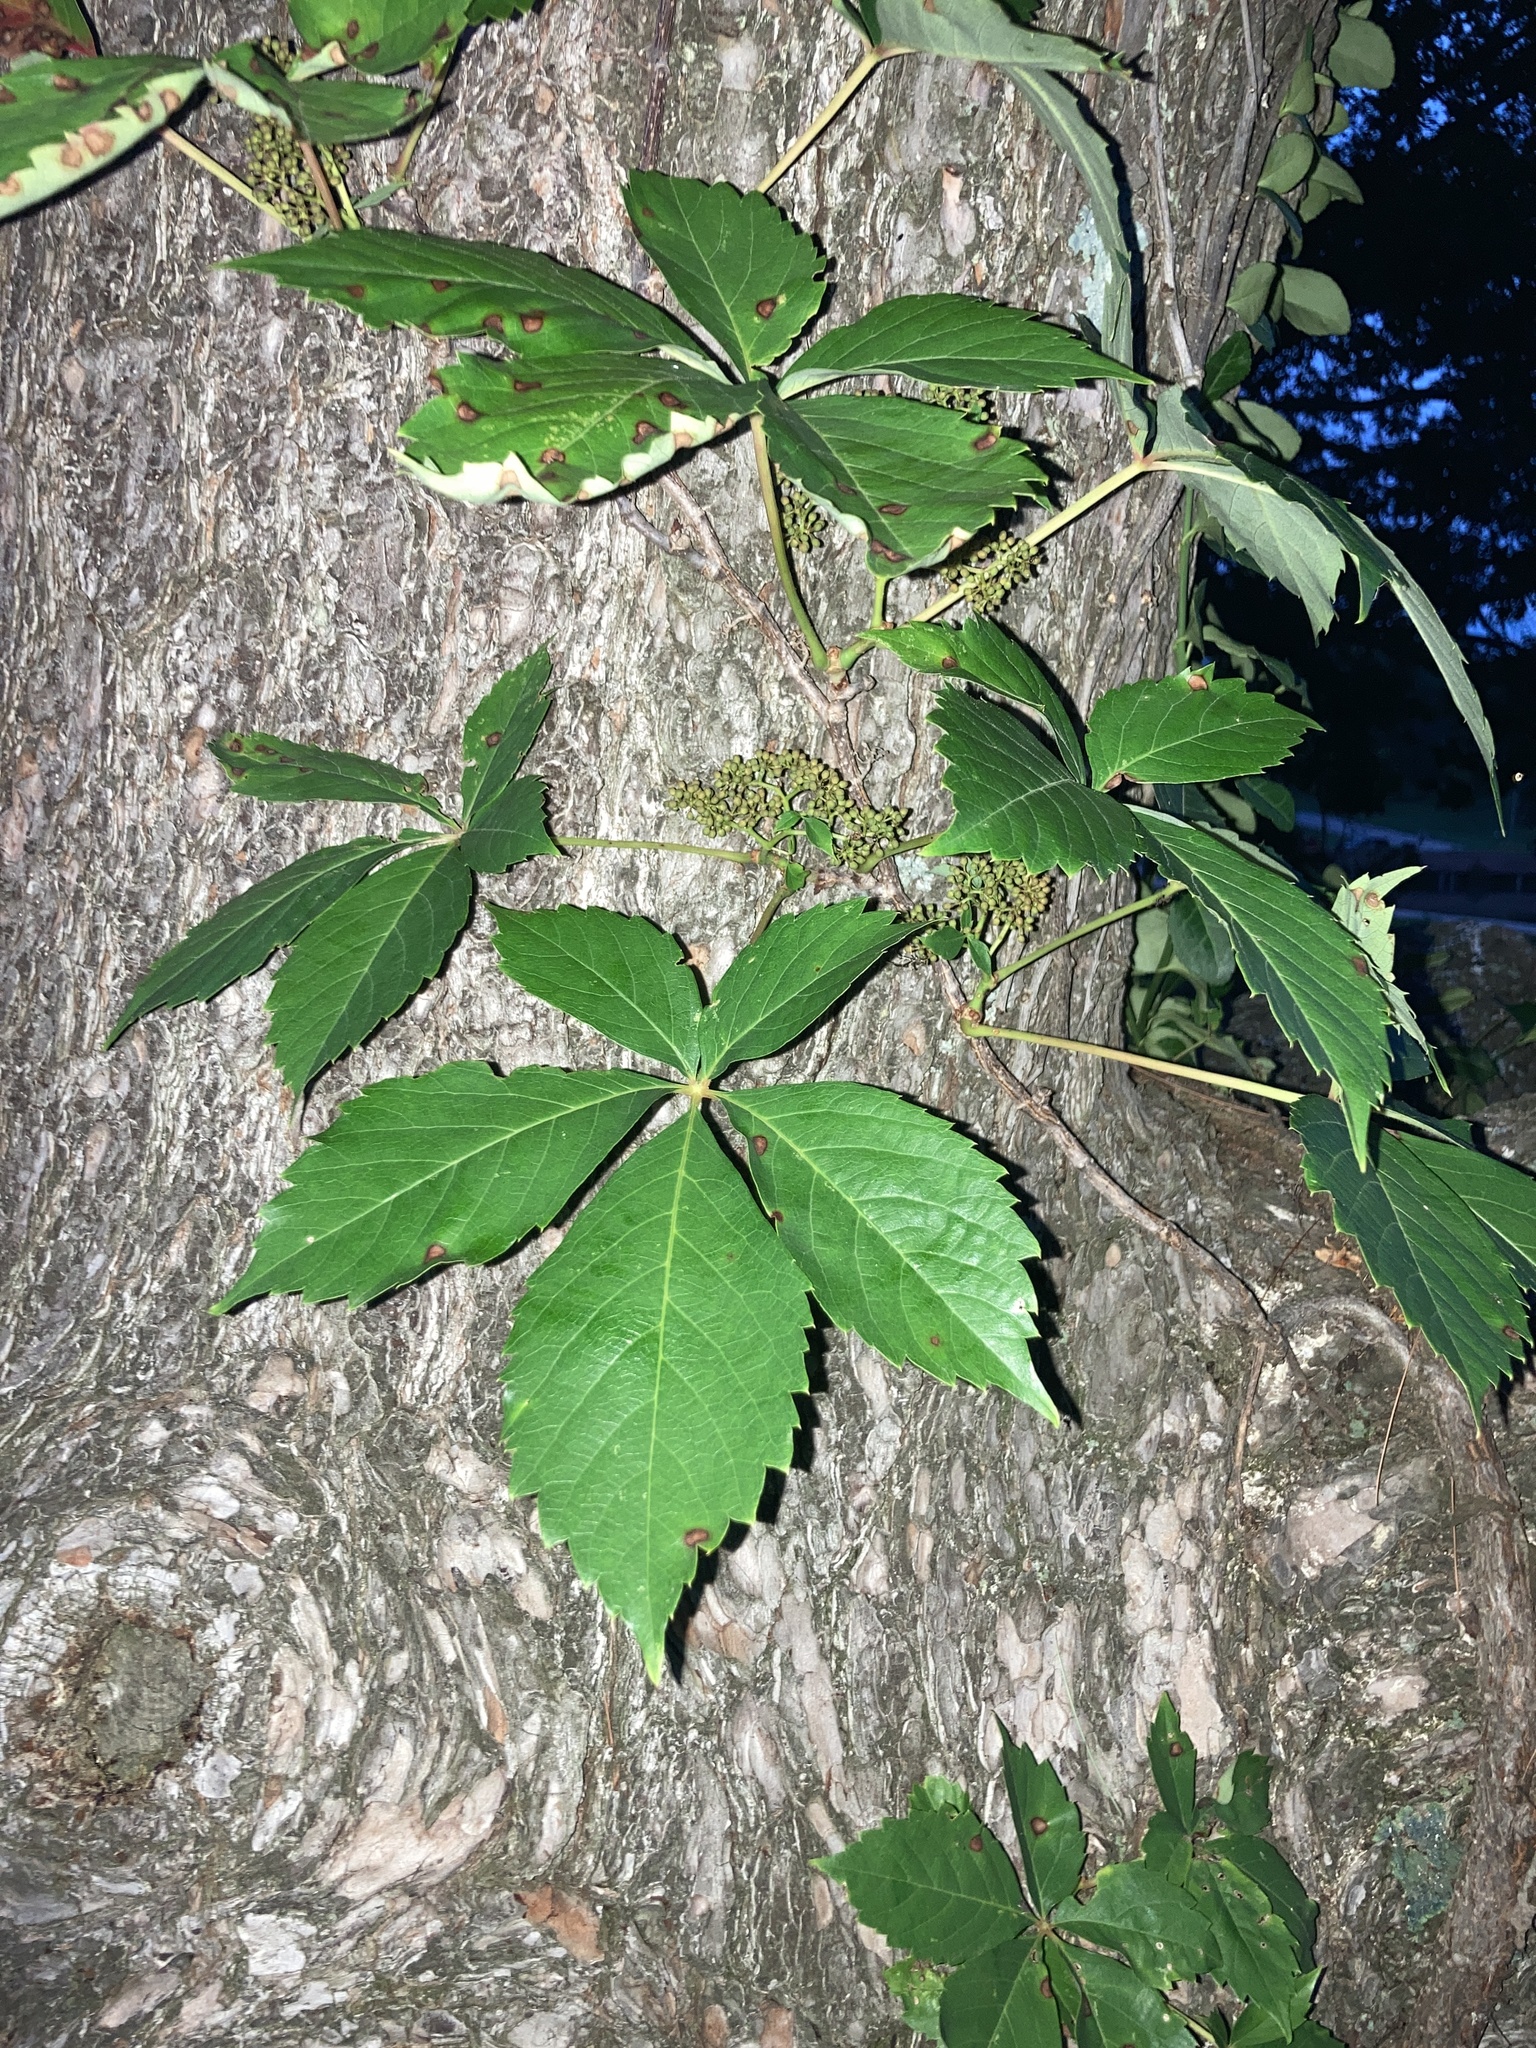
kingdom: Plantae
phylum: Tracheophyta
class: Magnoliopsida
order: Vitales
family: Vitaceae
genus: Parthenocissus
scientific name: Parthenocissus quinquefolia
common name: Virginia-creeper
